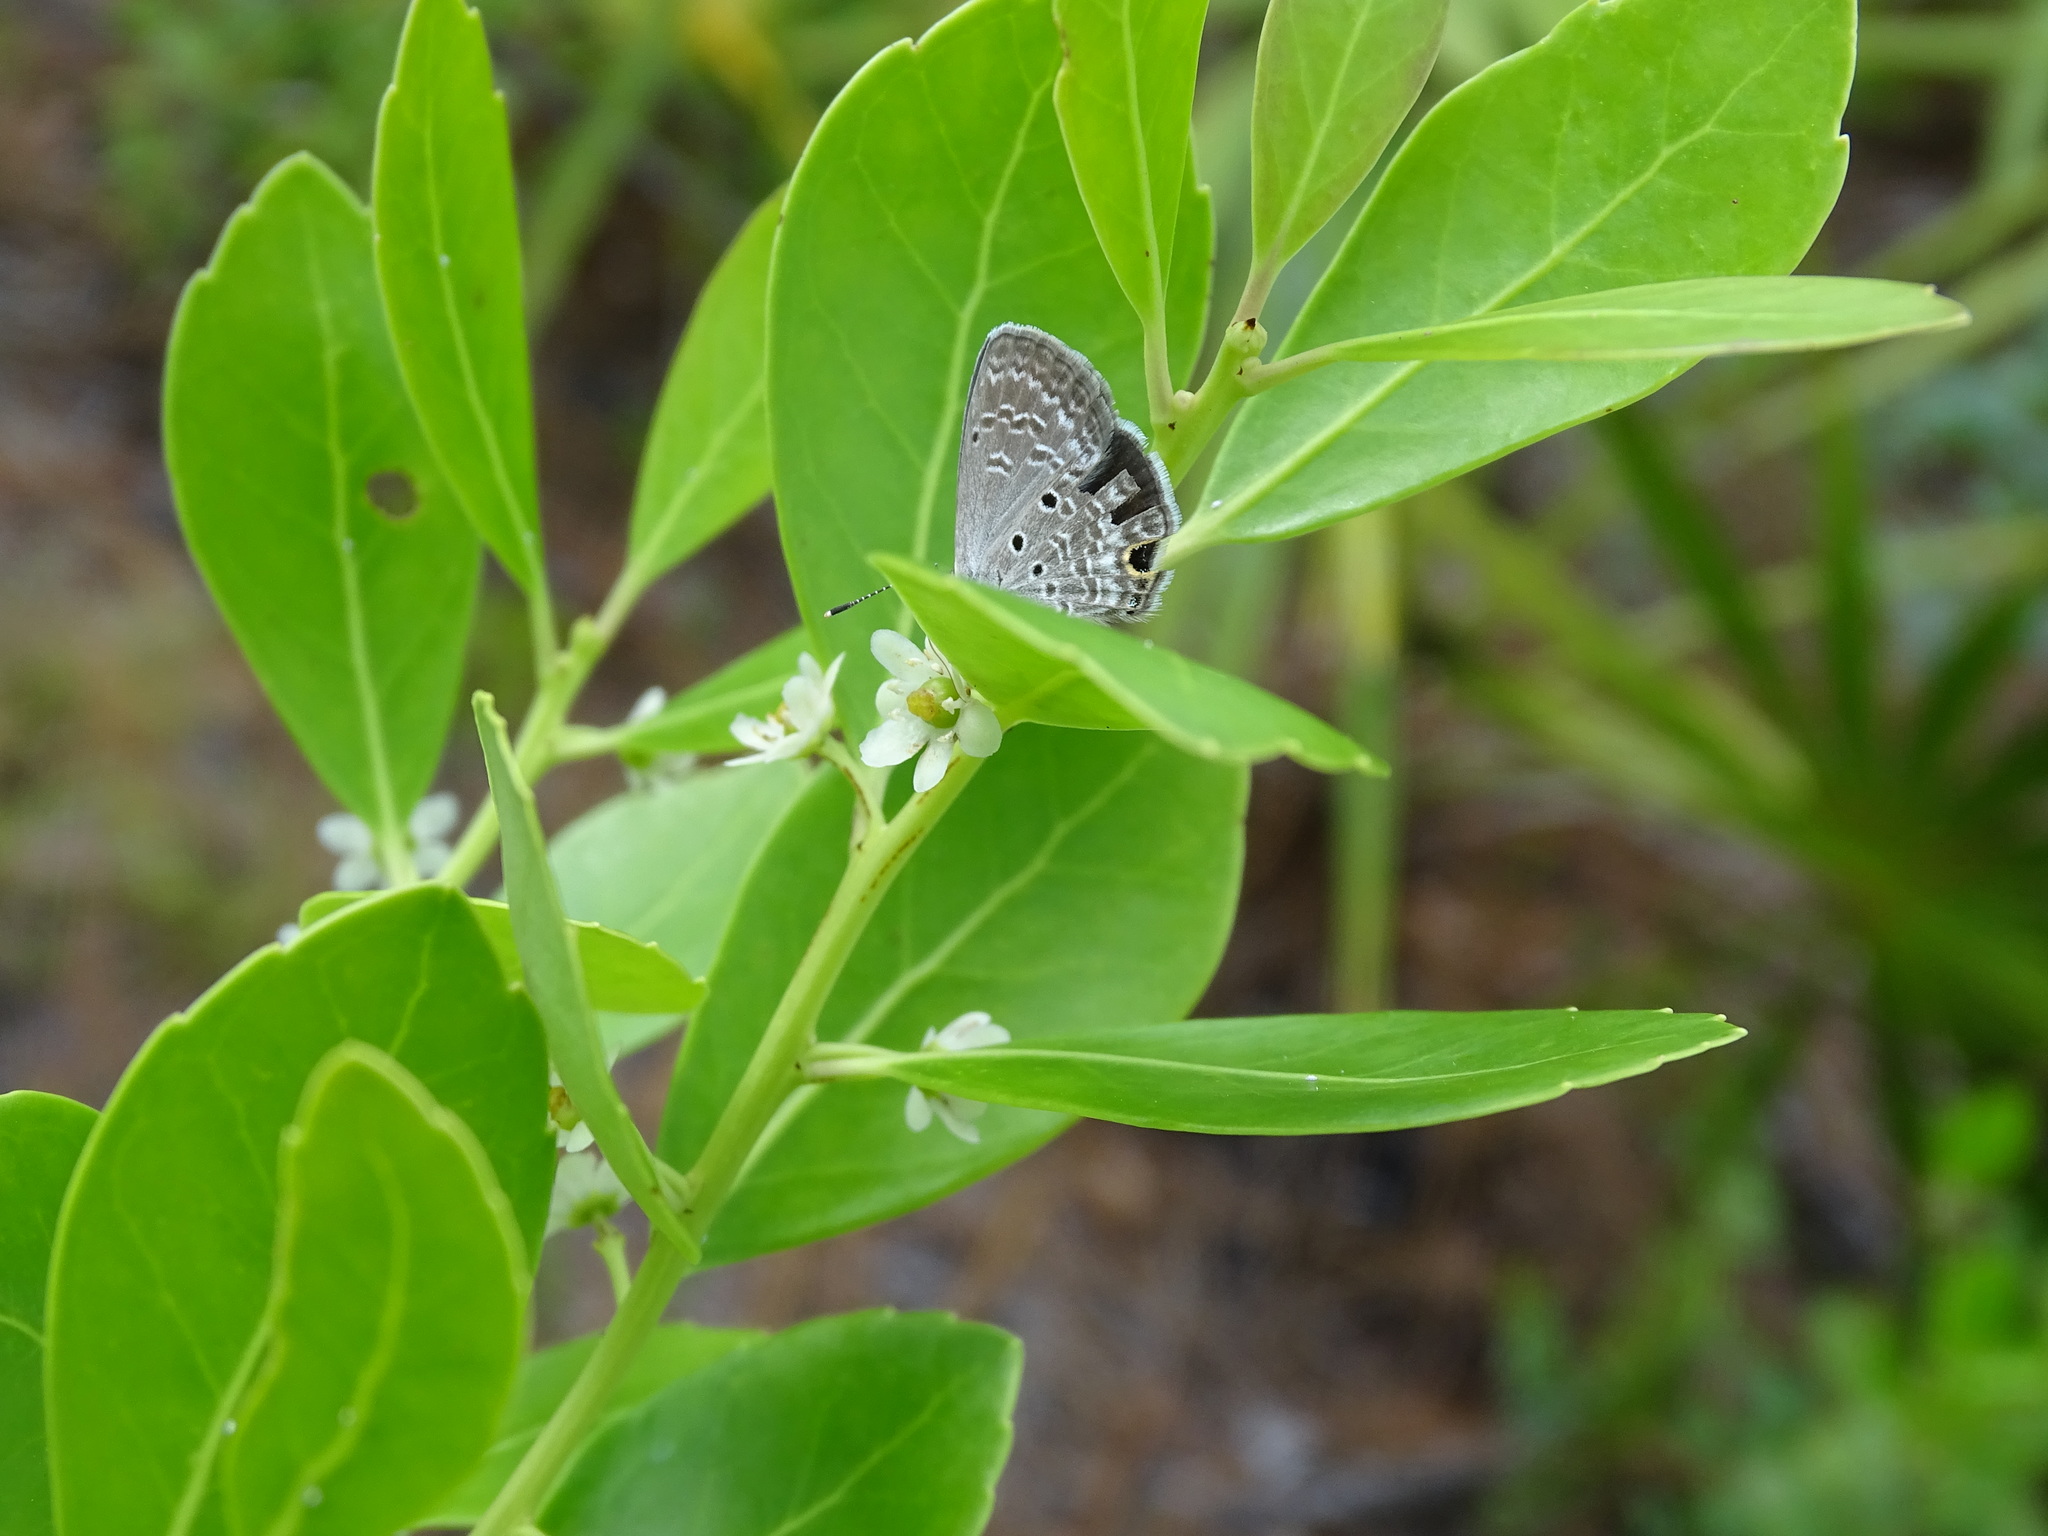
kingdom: Animalia
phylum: Arthropoda
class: Insecta
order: Lepidoptera
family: Lycaenidae
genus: Hemiargus
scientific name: Hemiargus ceraunus
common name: Ceraunus blue
